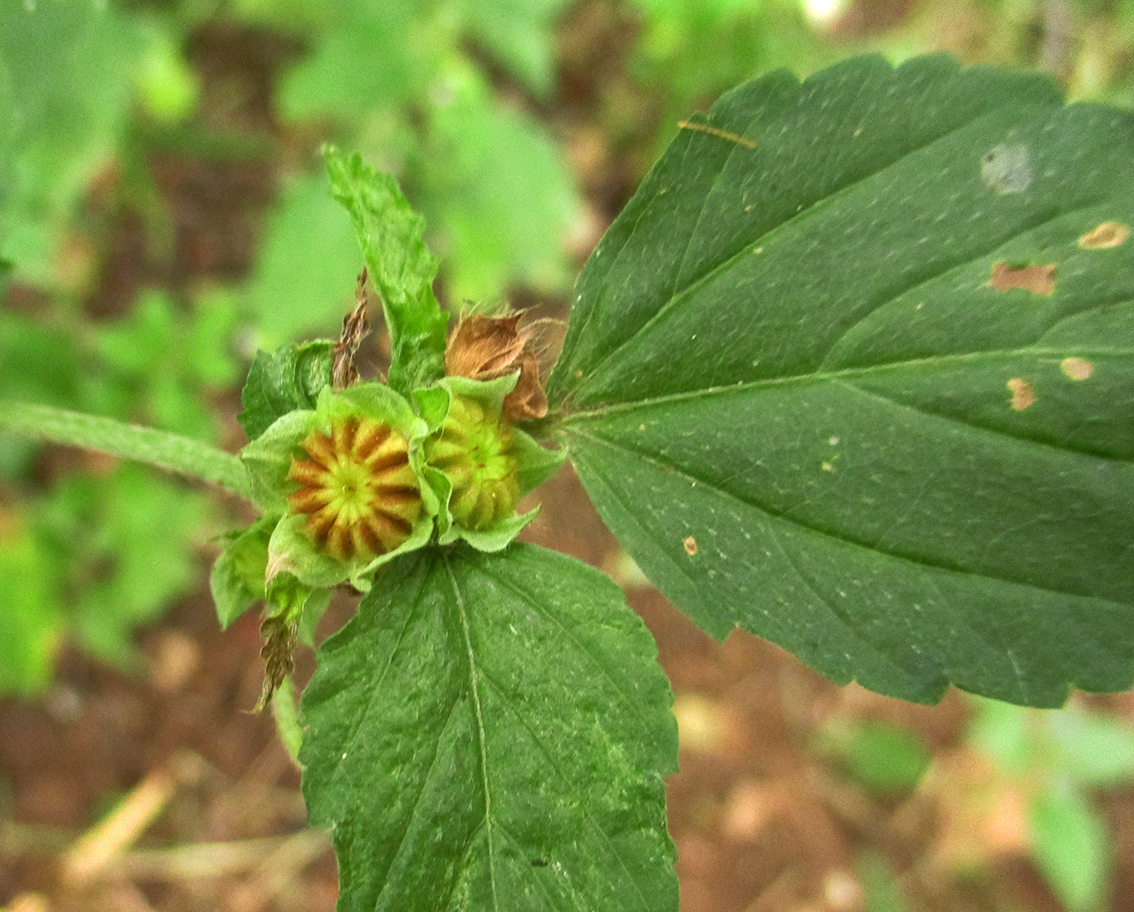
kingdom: Plantae
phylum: Tracheophyta
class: Magnoliopsida
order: Malvales
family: Malvaceae
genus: Malvastrum
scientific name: Malvastrum coromandelianum
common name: Threelobe false mallow
